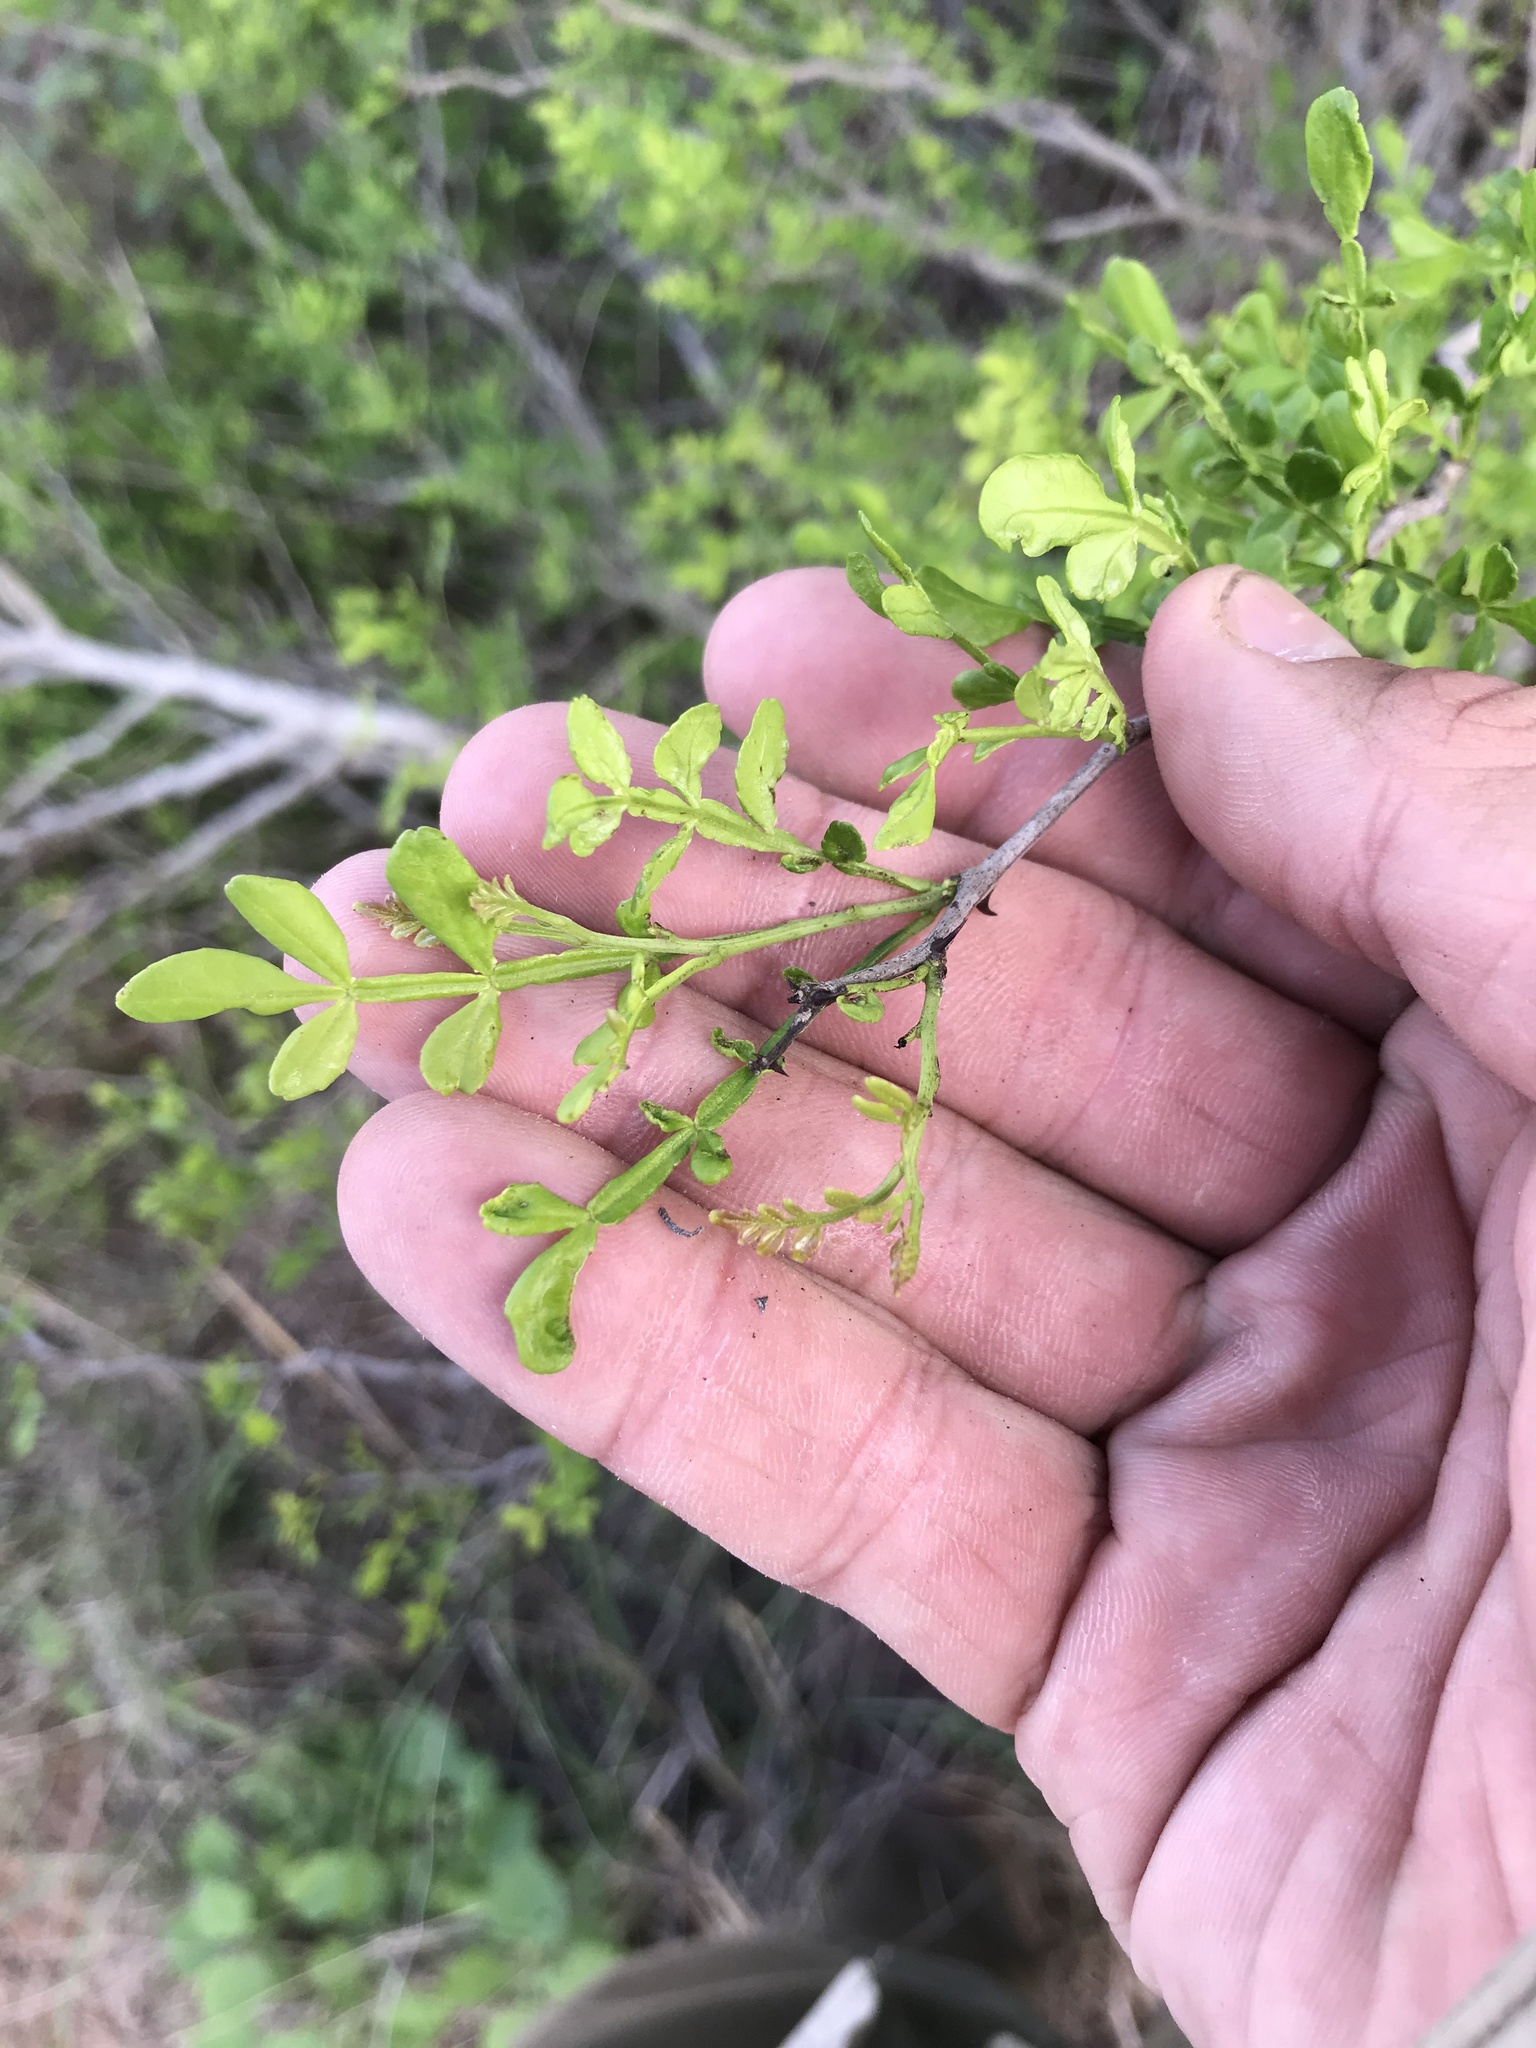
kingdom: Plantae
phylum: Tracheophyta
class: Magnoliopsida
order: Sapindales
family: Rutaceae
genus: Zanthoxylum
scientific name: Zanthoxylum fagara
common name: Lime prickly-ash
